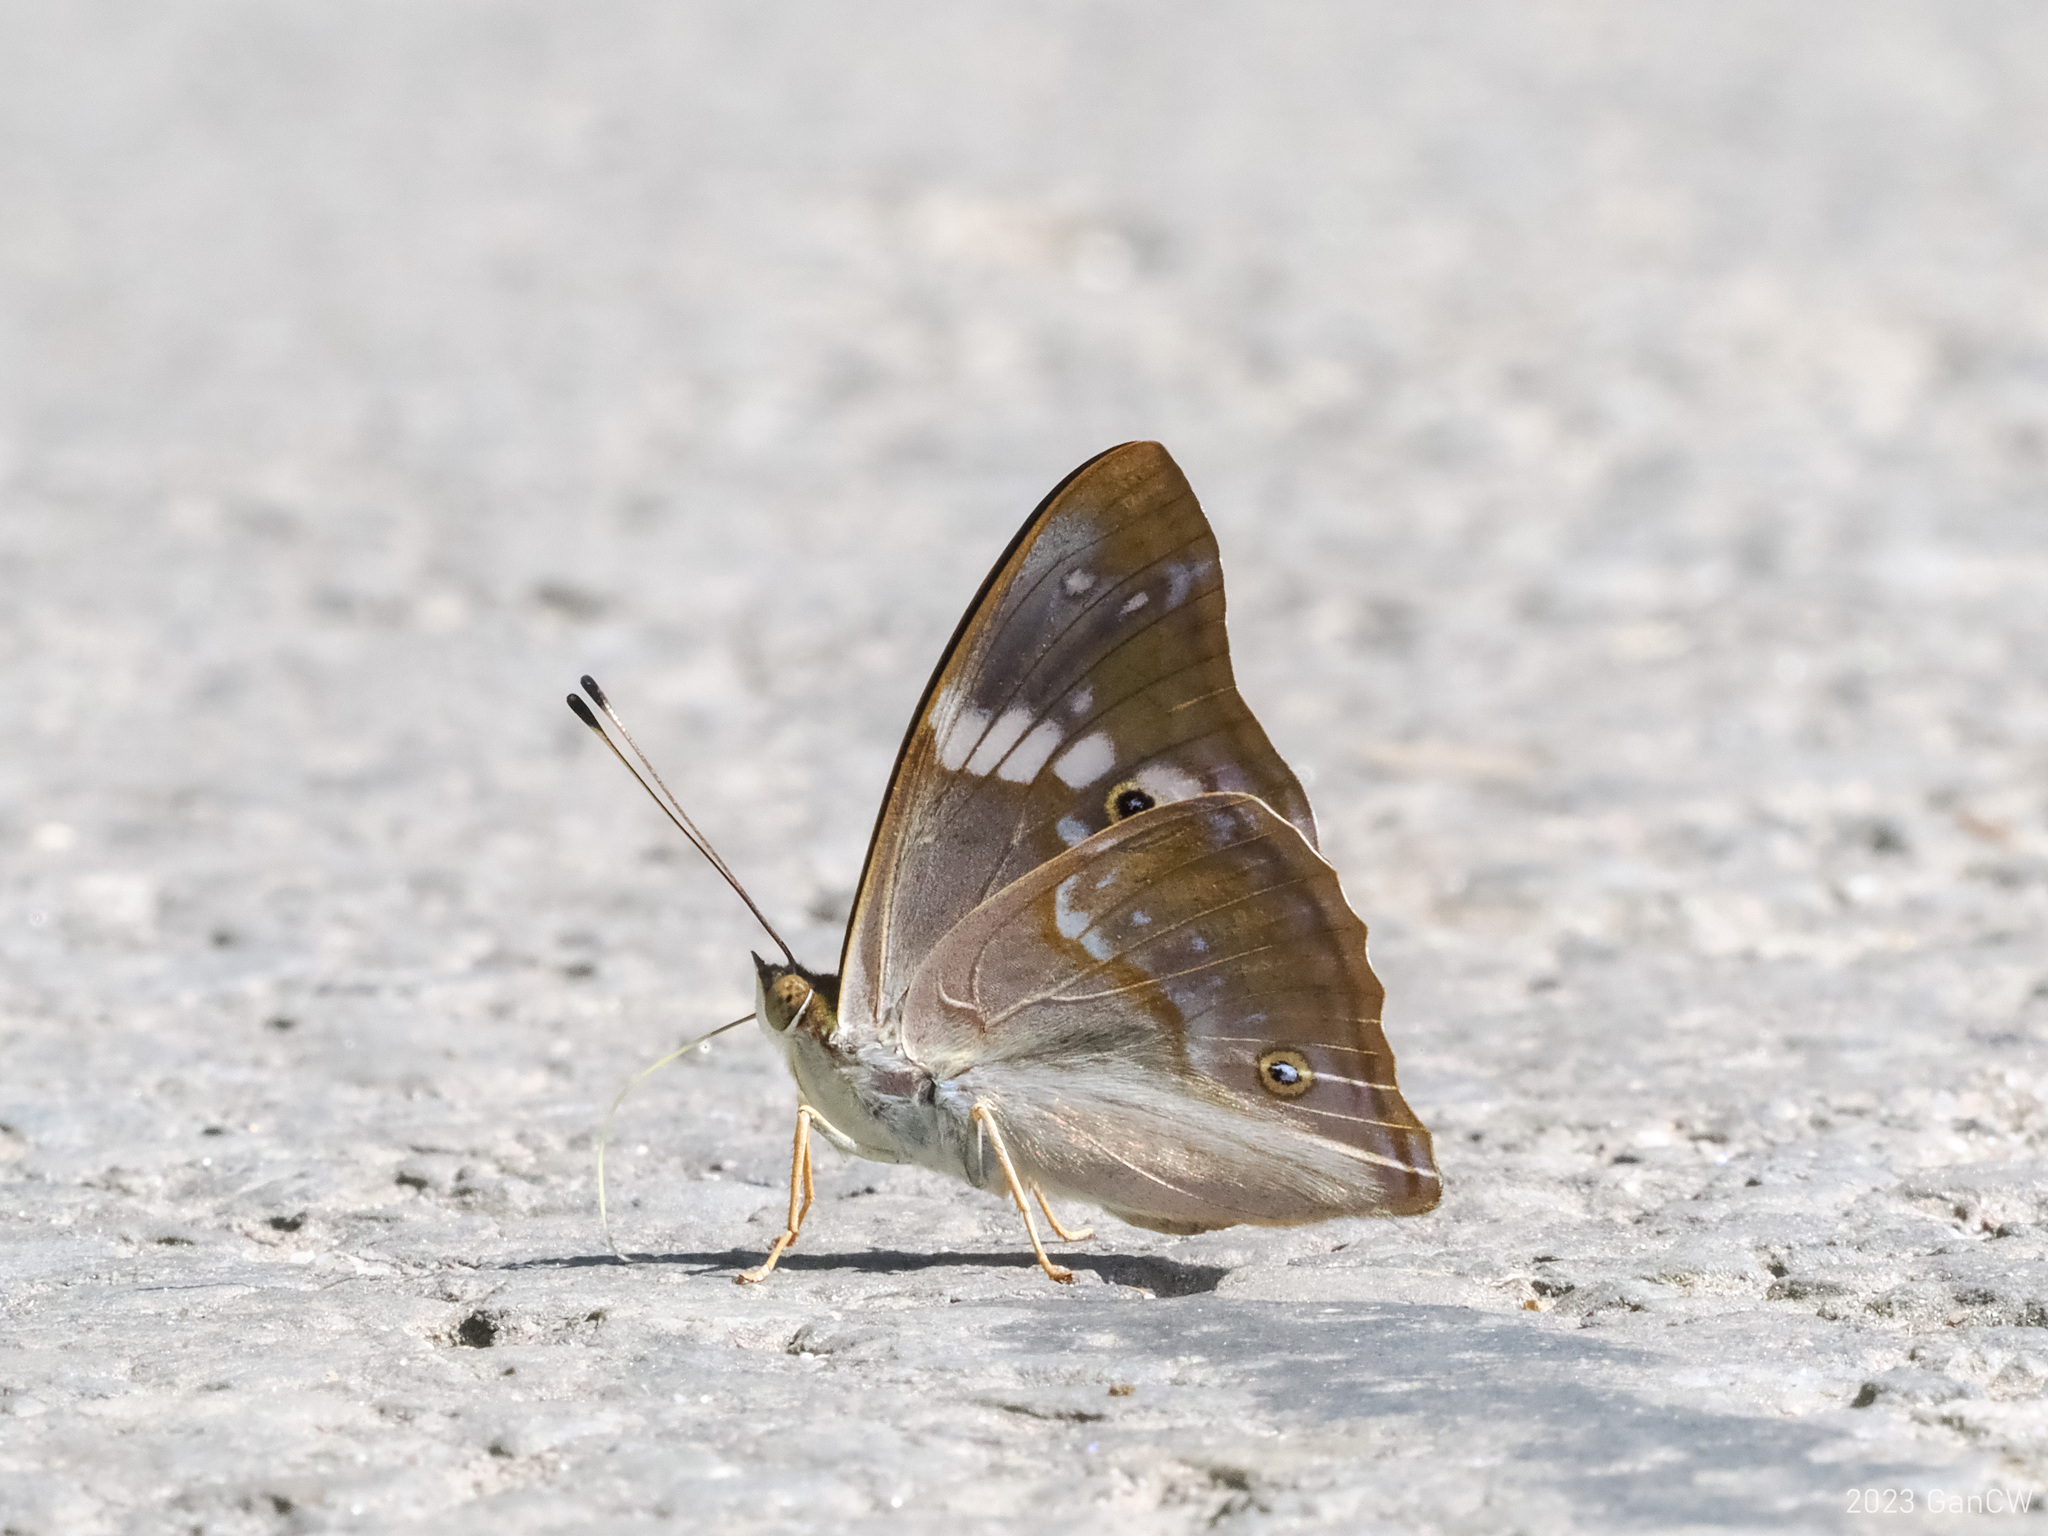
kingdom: Animalia
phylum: Arthropoda
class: Insecta
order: Lepidoptera
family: Nymphalidae
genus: Apatura
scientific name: Apatura
